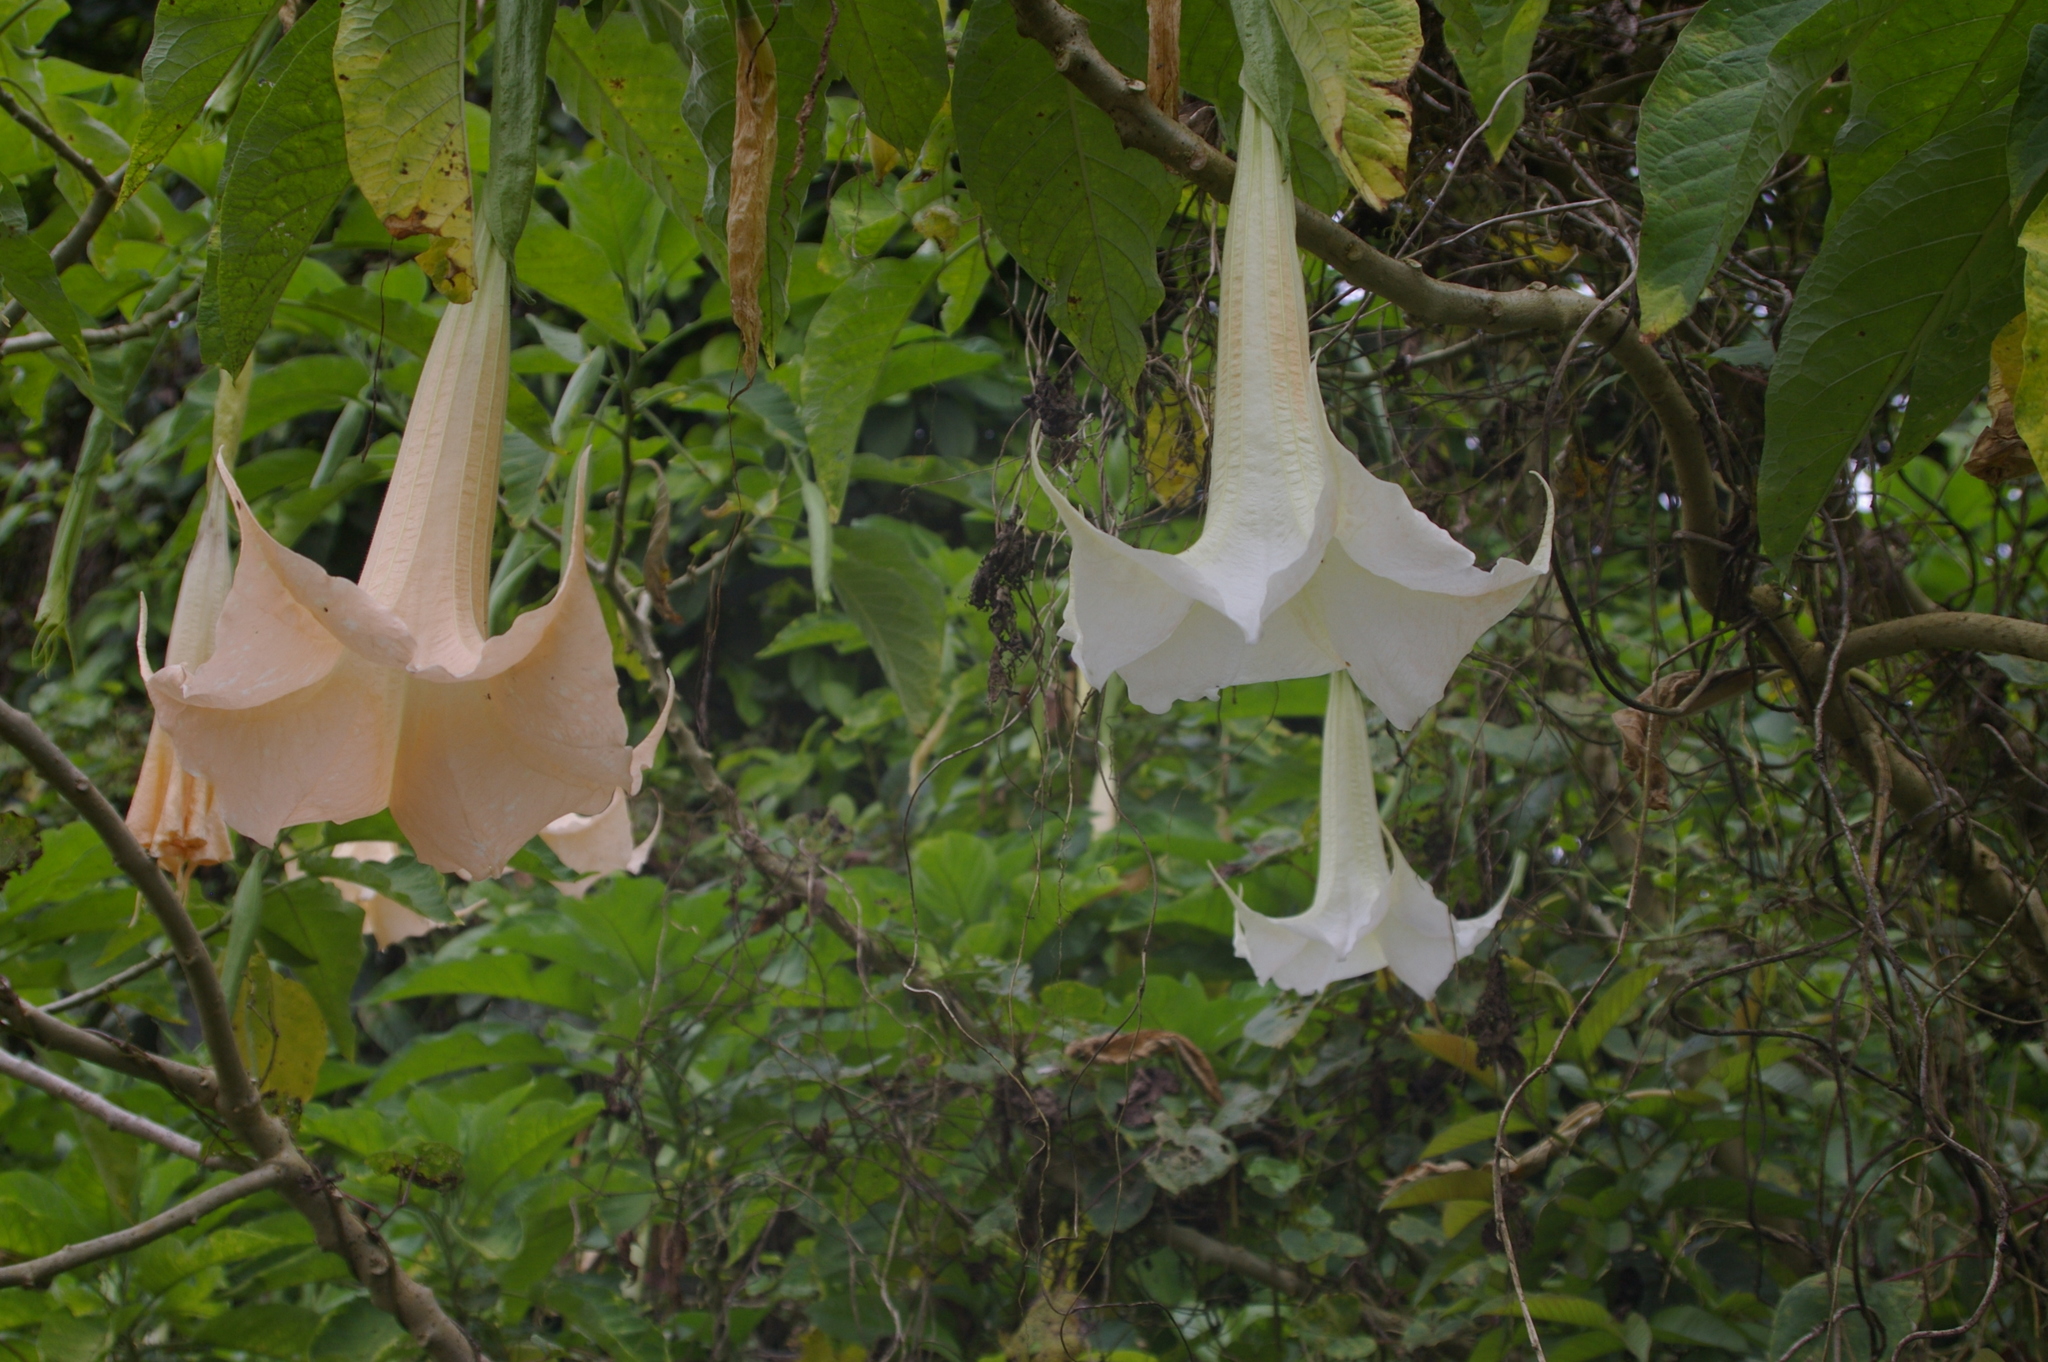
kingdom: Plantae
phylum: Tracheophyta
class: Magnoliopsida
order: Solanales
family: Solanaceae
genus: Brugmansia
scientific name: Brugmansia candida
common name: Angel's-trumpet
